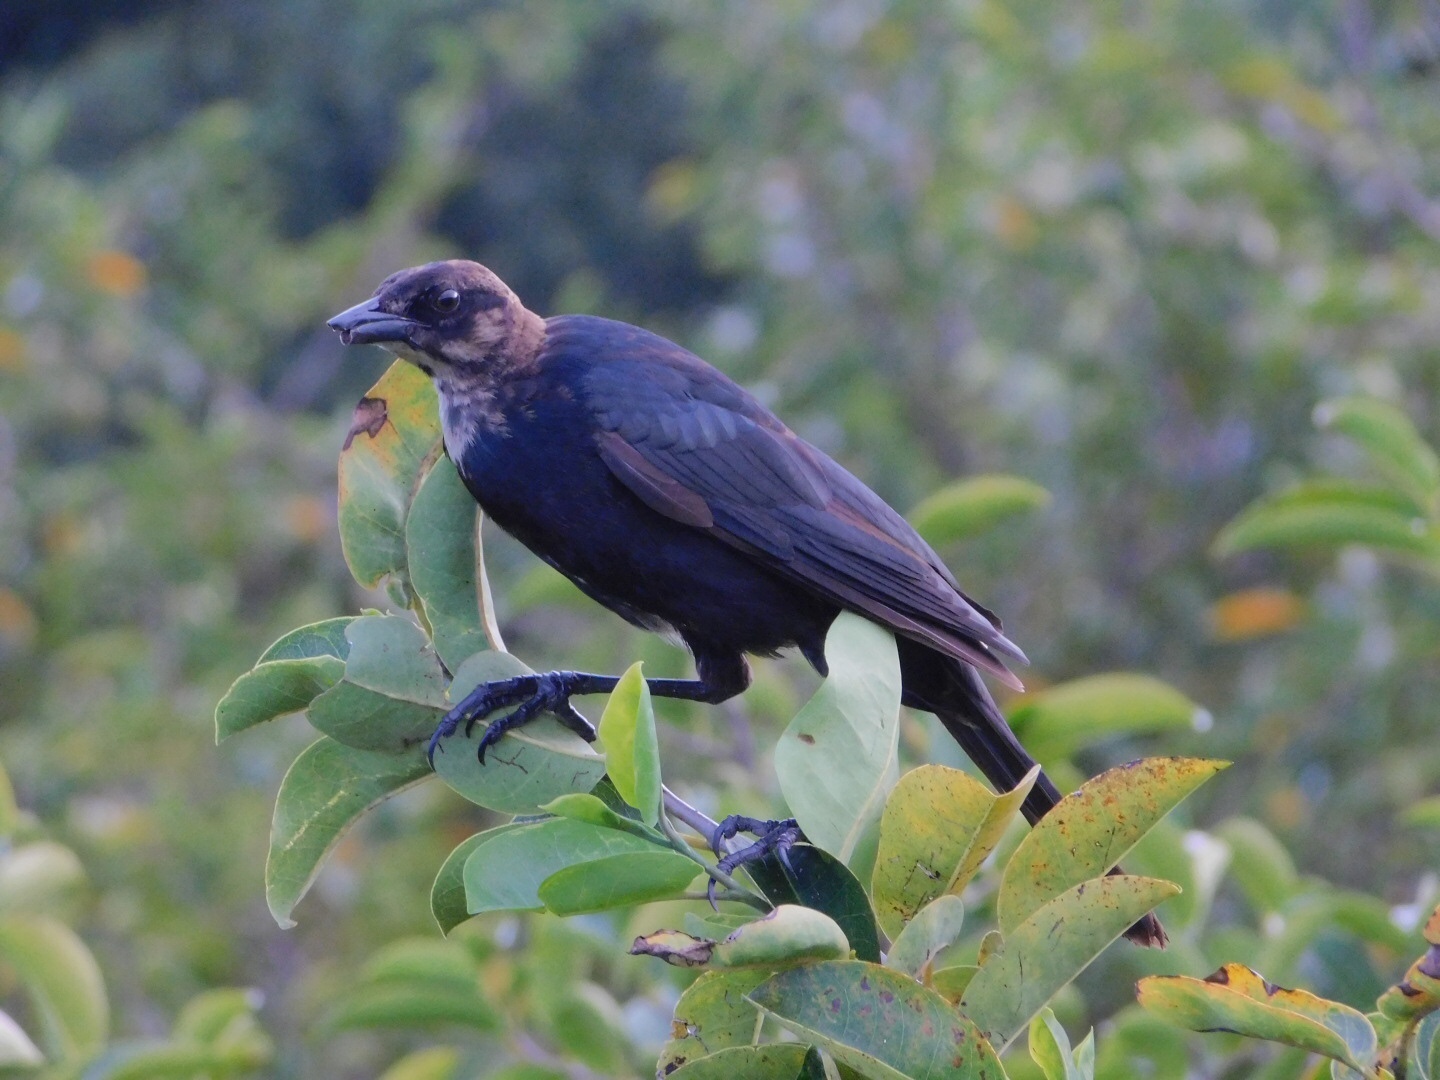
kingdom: Animalia
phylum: Chordata
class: Aves
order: Passeriformes
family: Icteridae
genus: Quiscalus
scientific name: Quiscalus major
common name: Boat-tailed grackle
